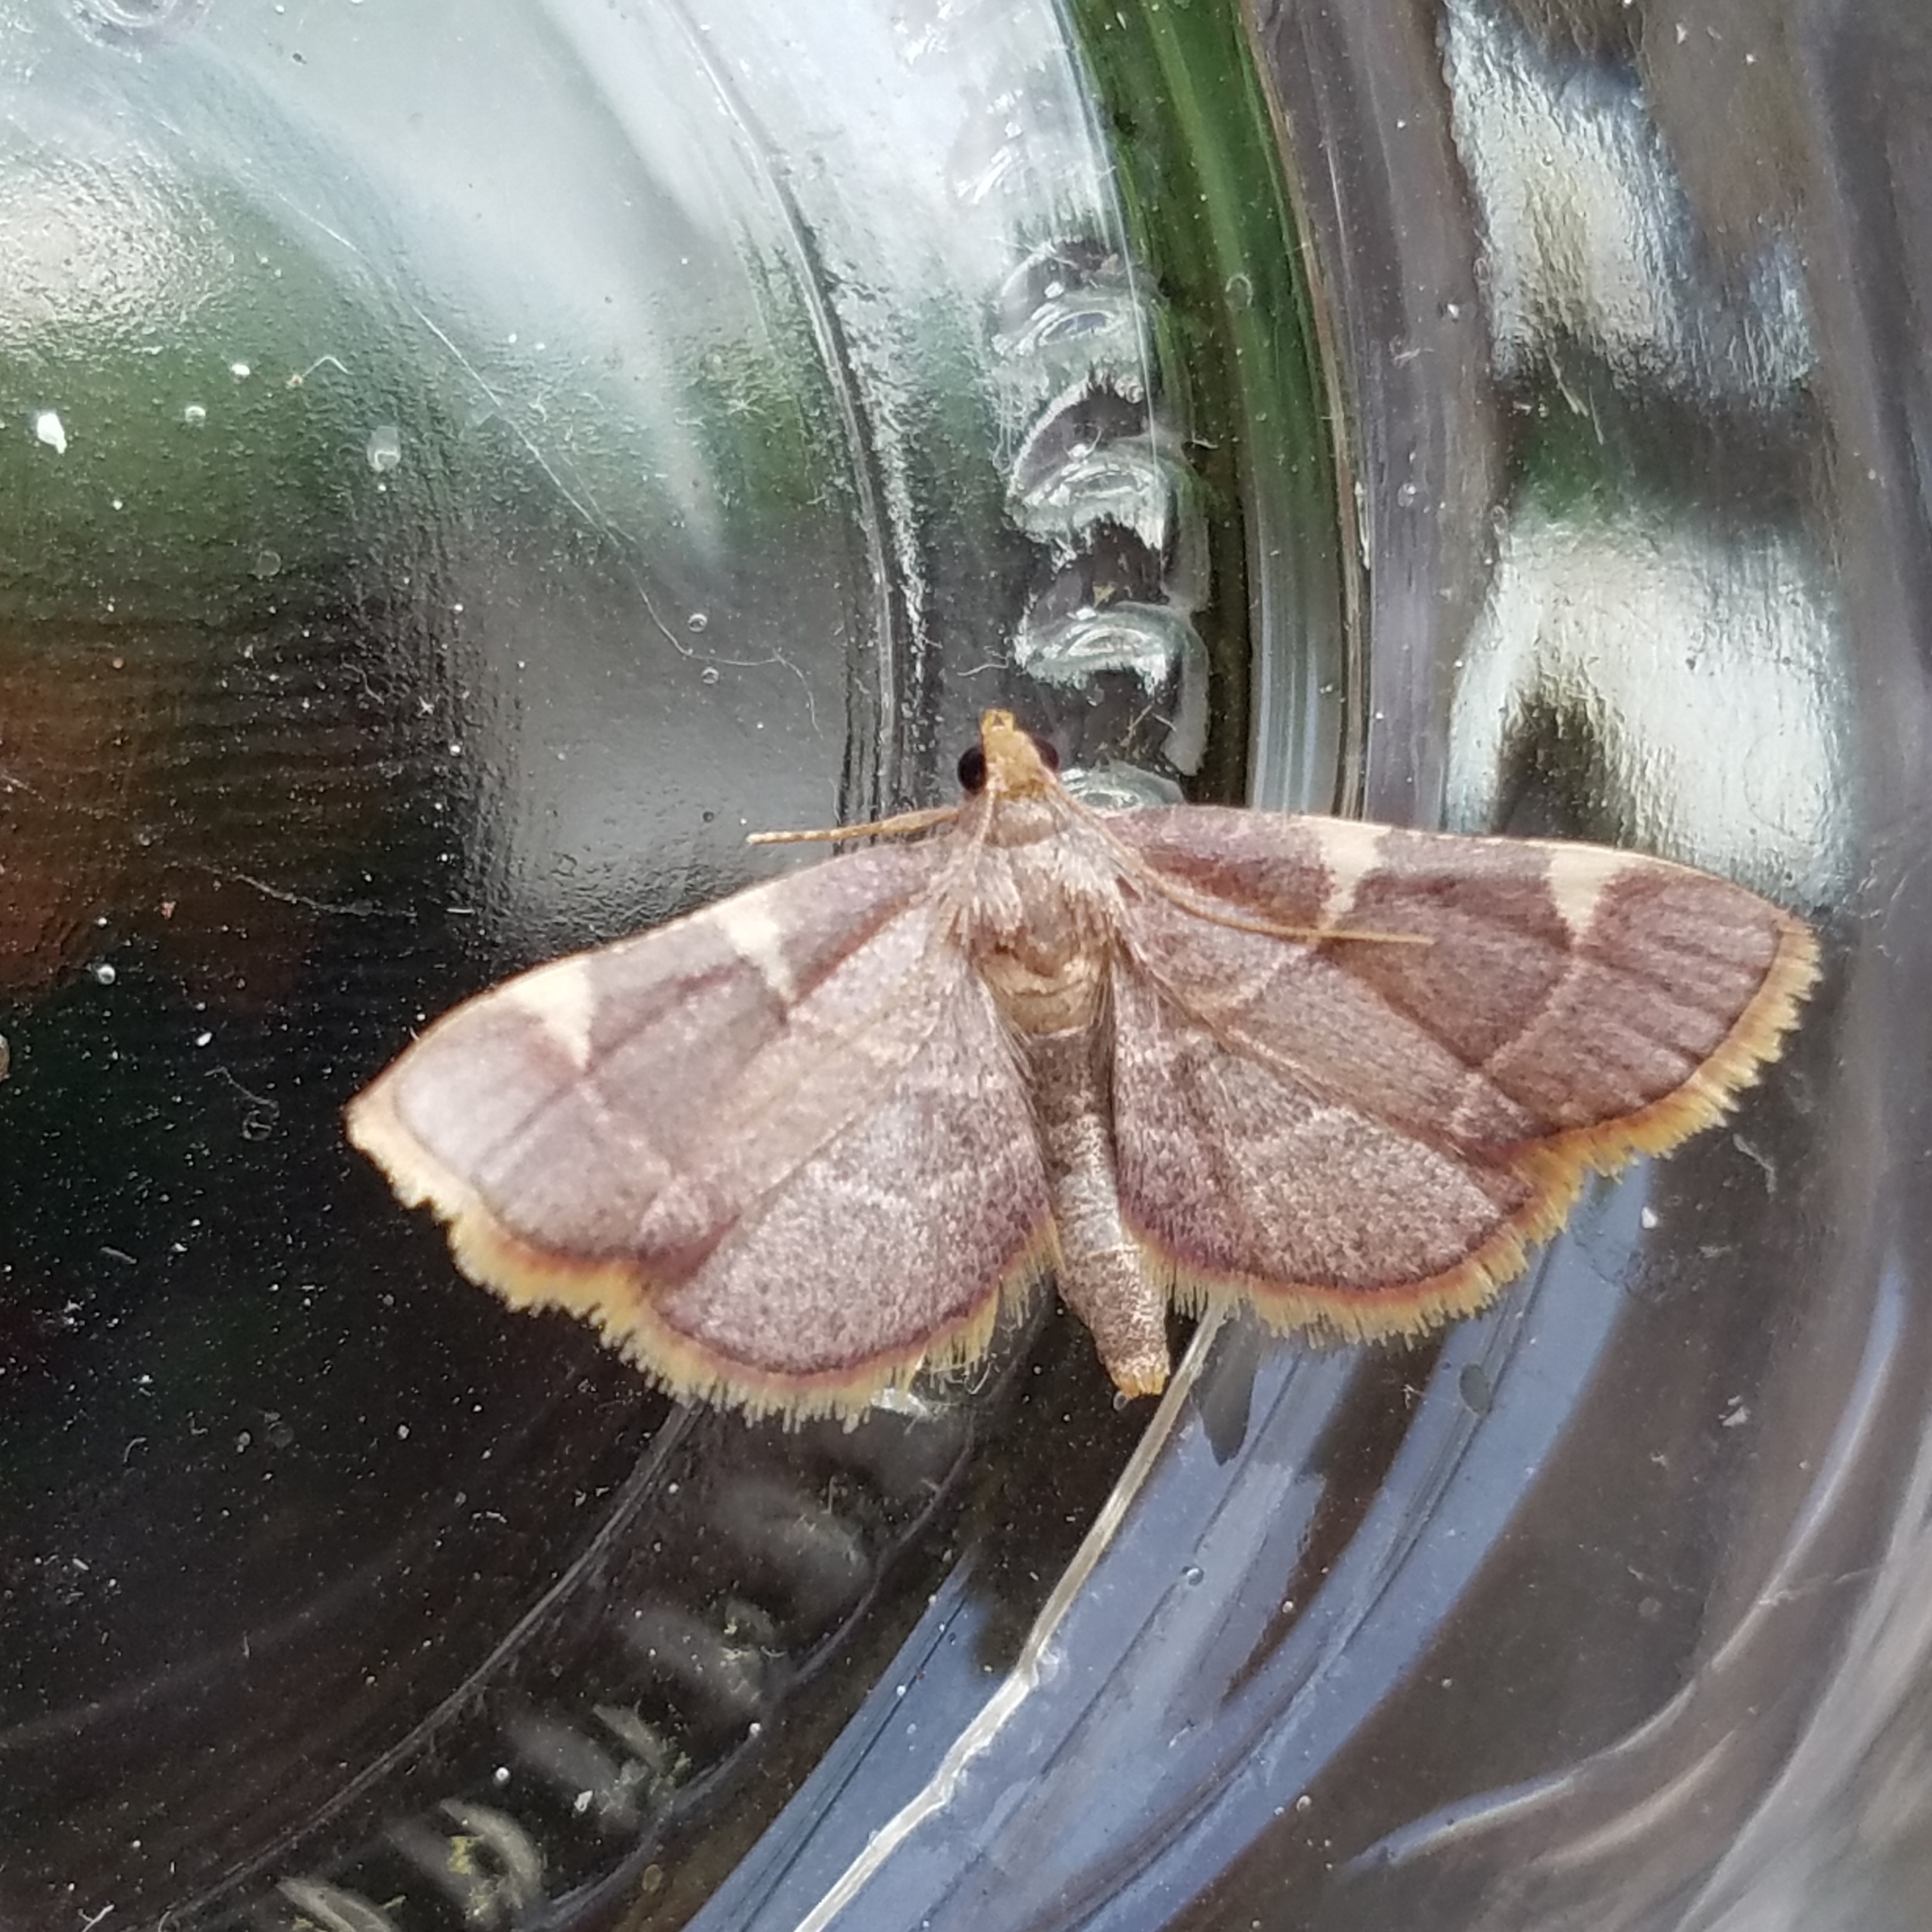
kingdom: Animalia
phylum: Arthropoda
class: Insecta
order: Lepidoptera
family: Pyralidae
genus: Hypsopygia
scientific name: Hypsopygia olinalis
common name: Yellow-fringed dolichomia moth
